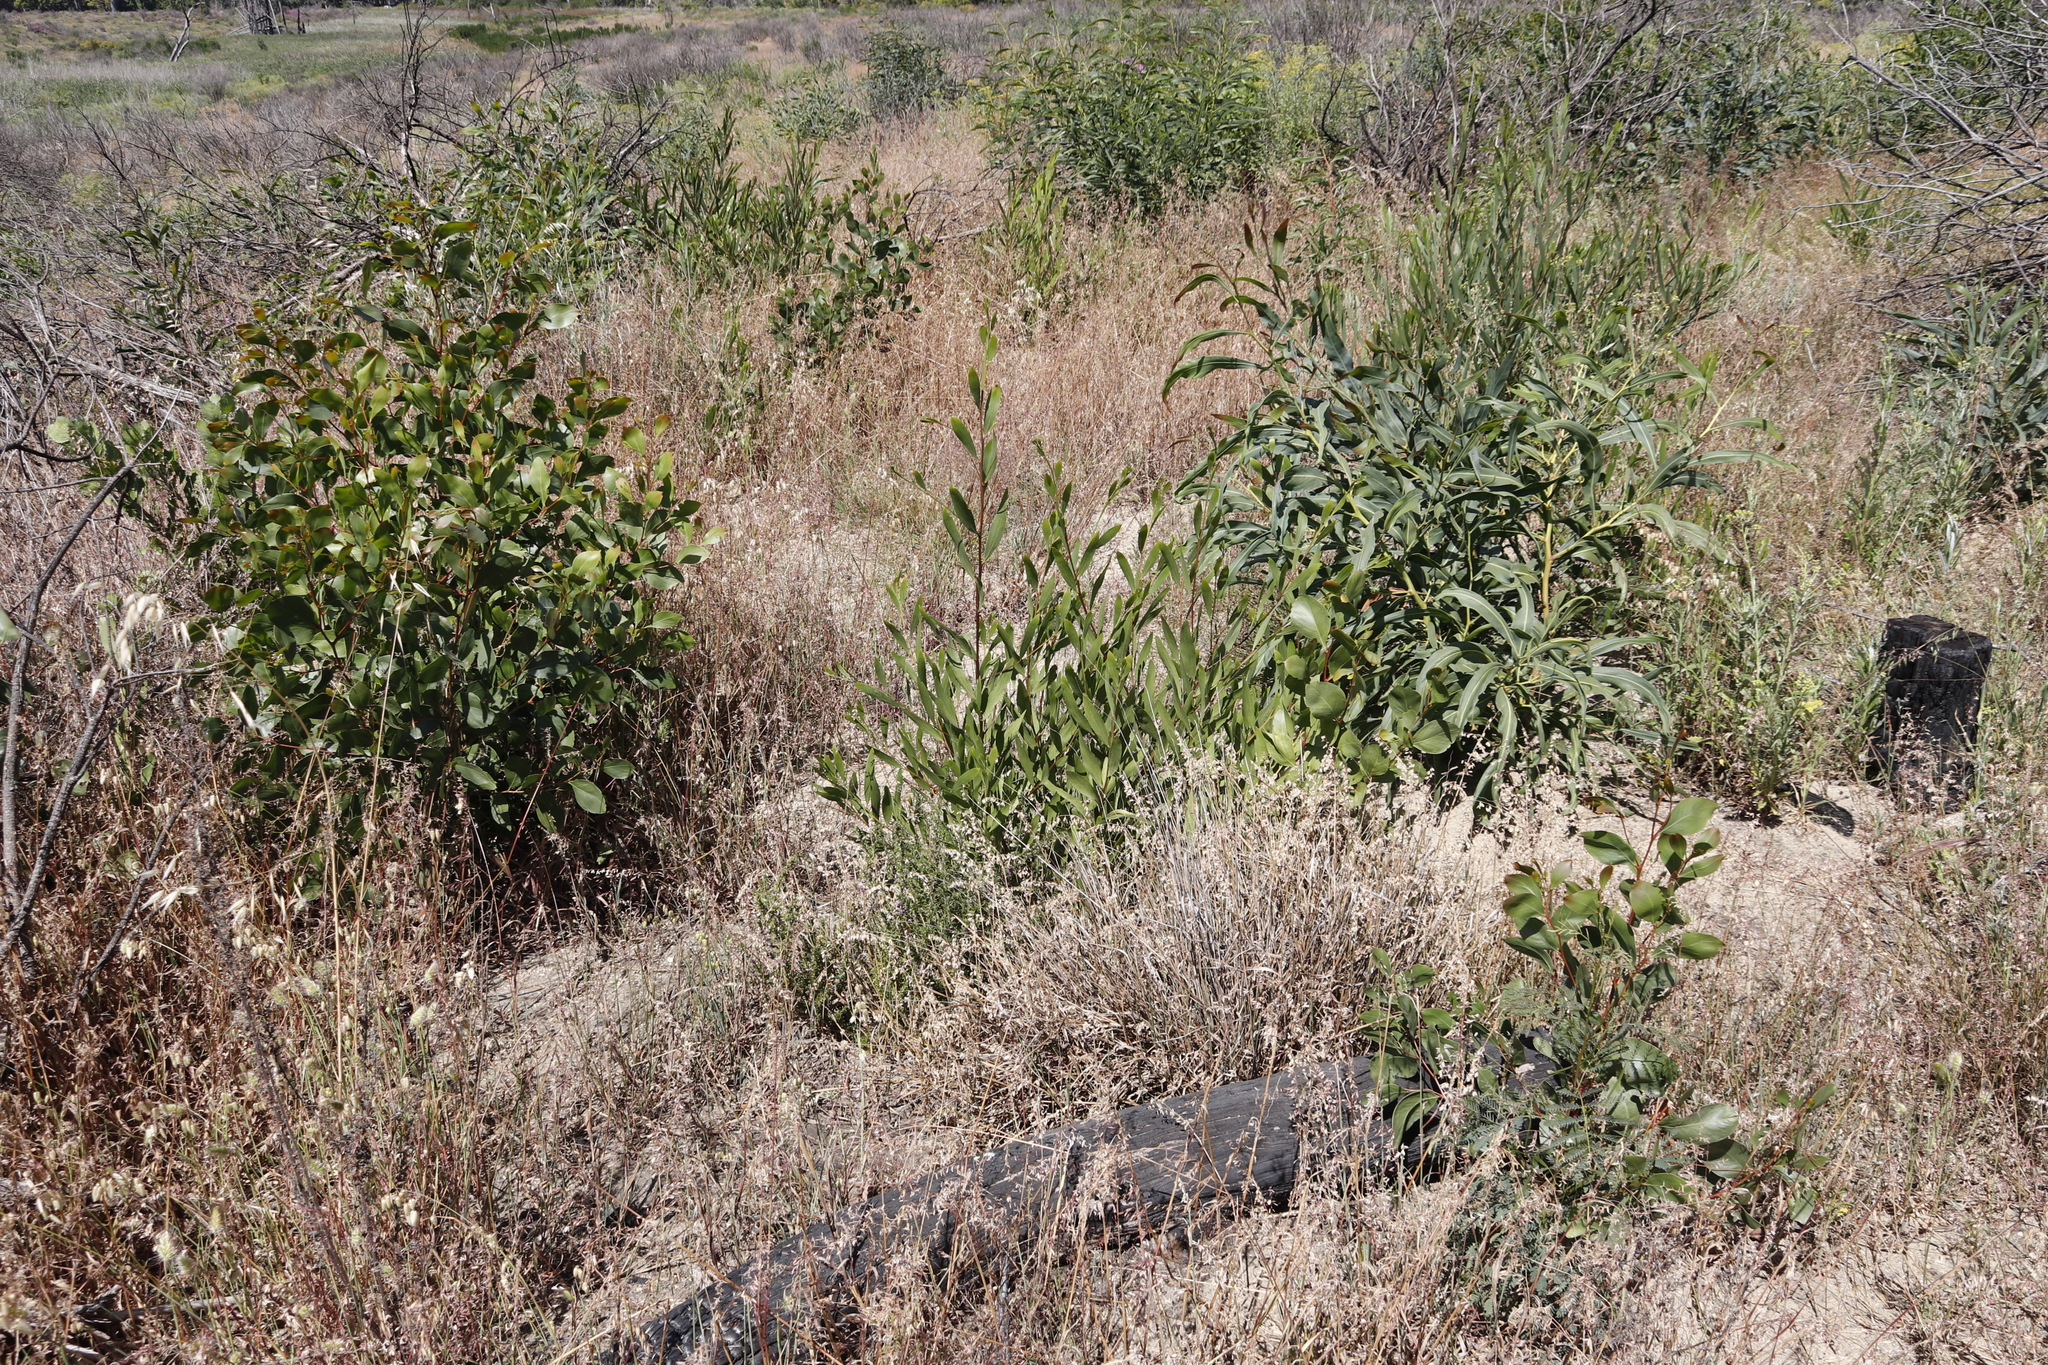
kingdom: Plantae
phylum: Tracheophyta
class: Magnoliopsida
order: Fabales
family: Fabaceae
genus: Acacia
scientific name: Acacia pycnantha
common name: Golden wattle
